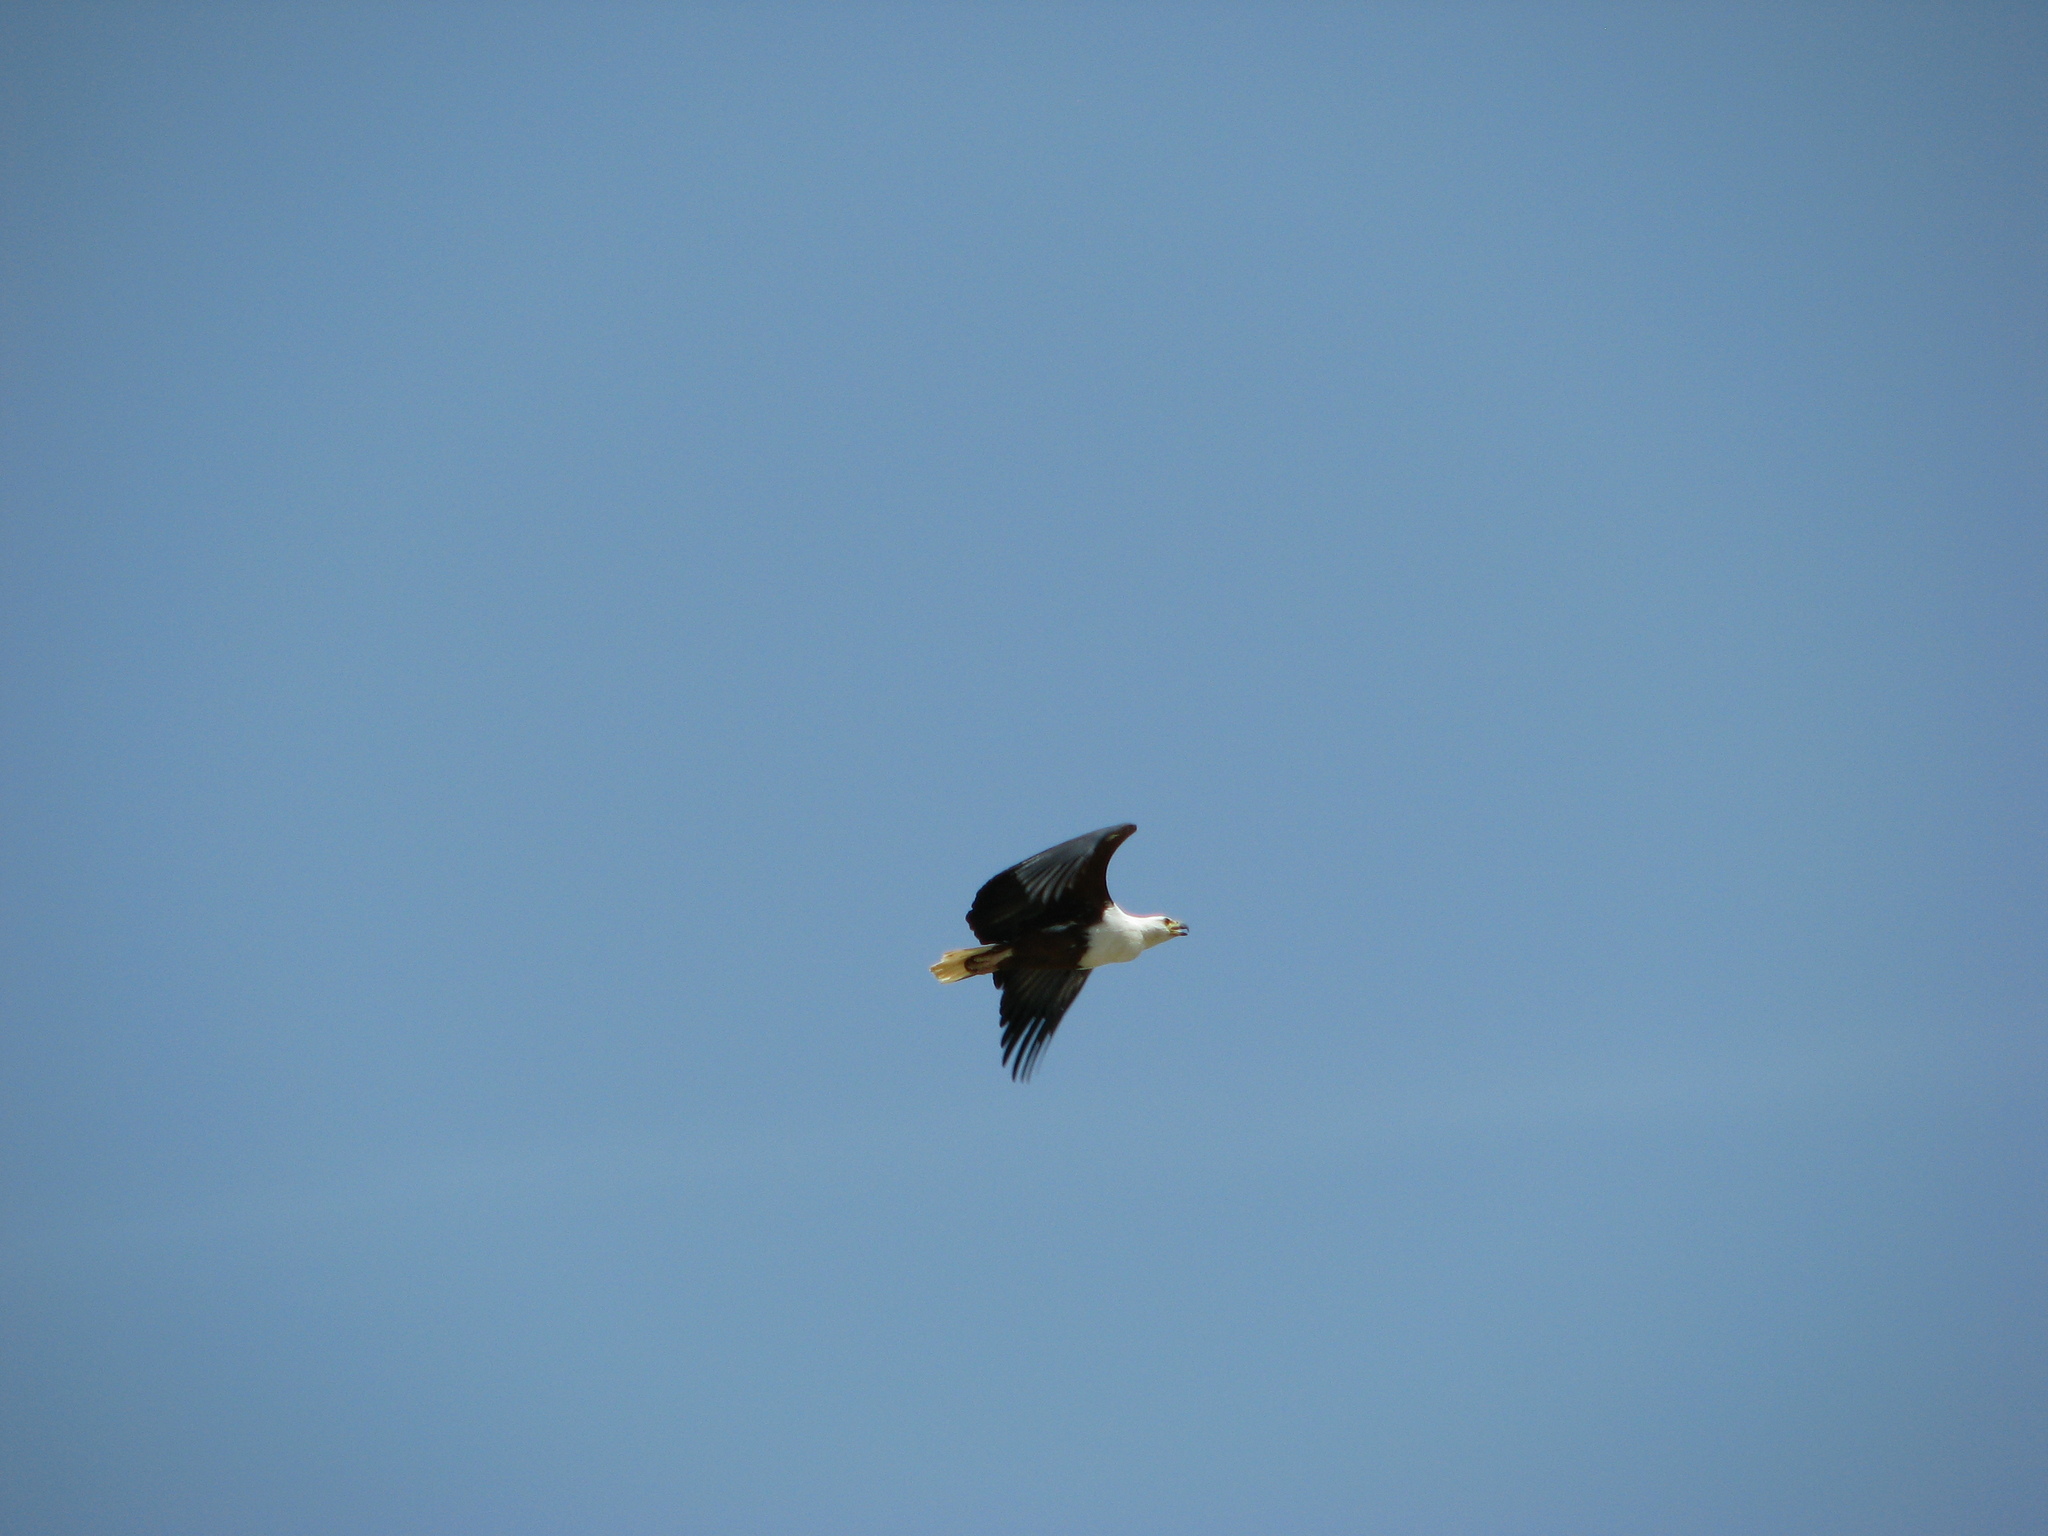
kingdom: Animalia
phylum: Chordata
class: Aves
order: Accipitriformes
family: Accipitridae
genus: Haliaeetus
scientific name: Haliaeetus vocifer
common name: African fish eagle
